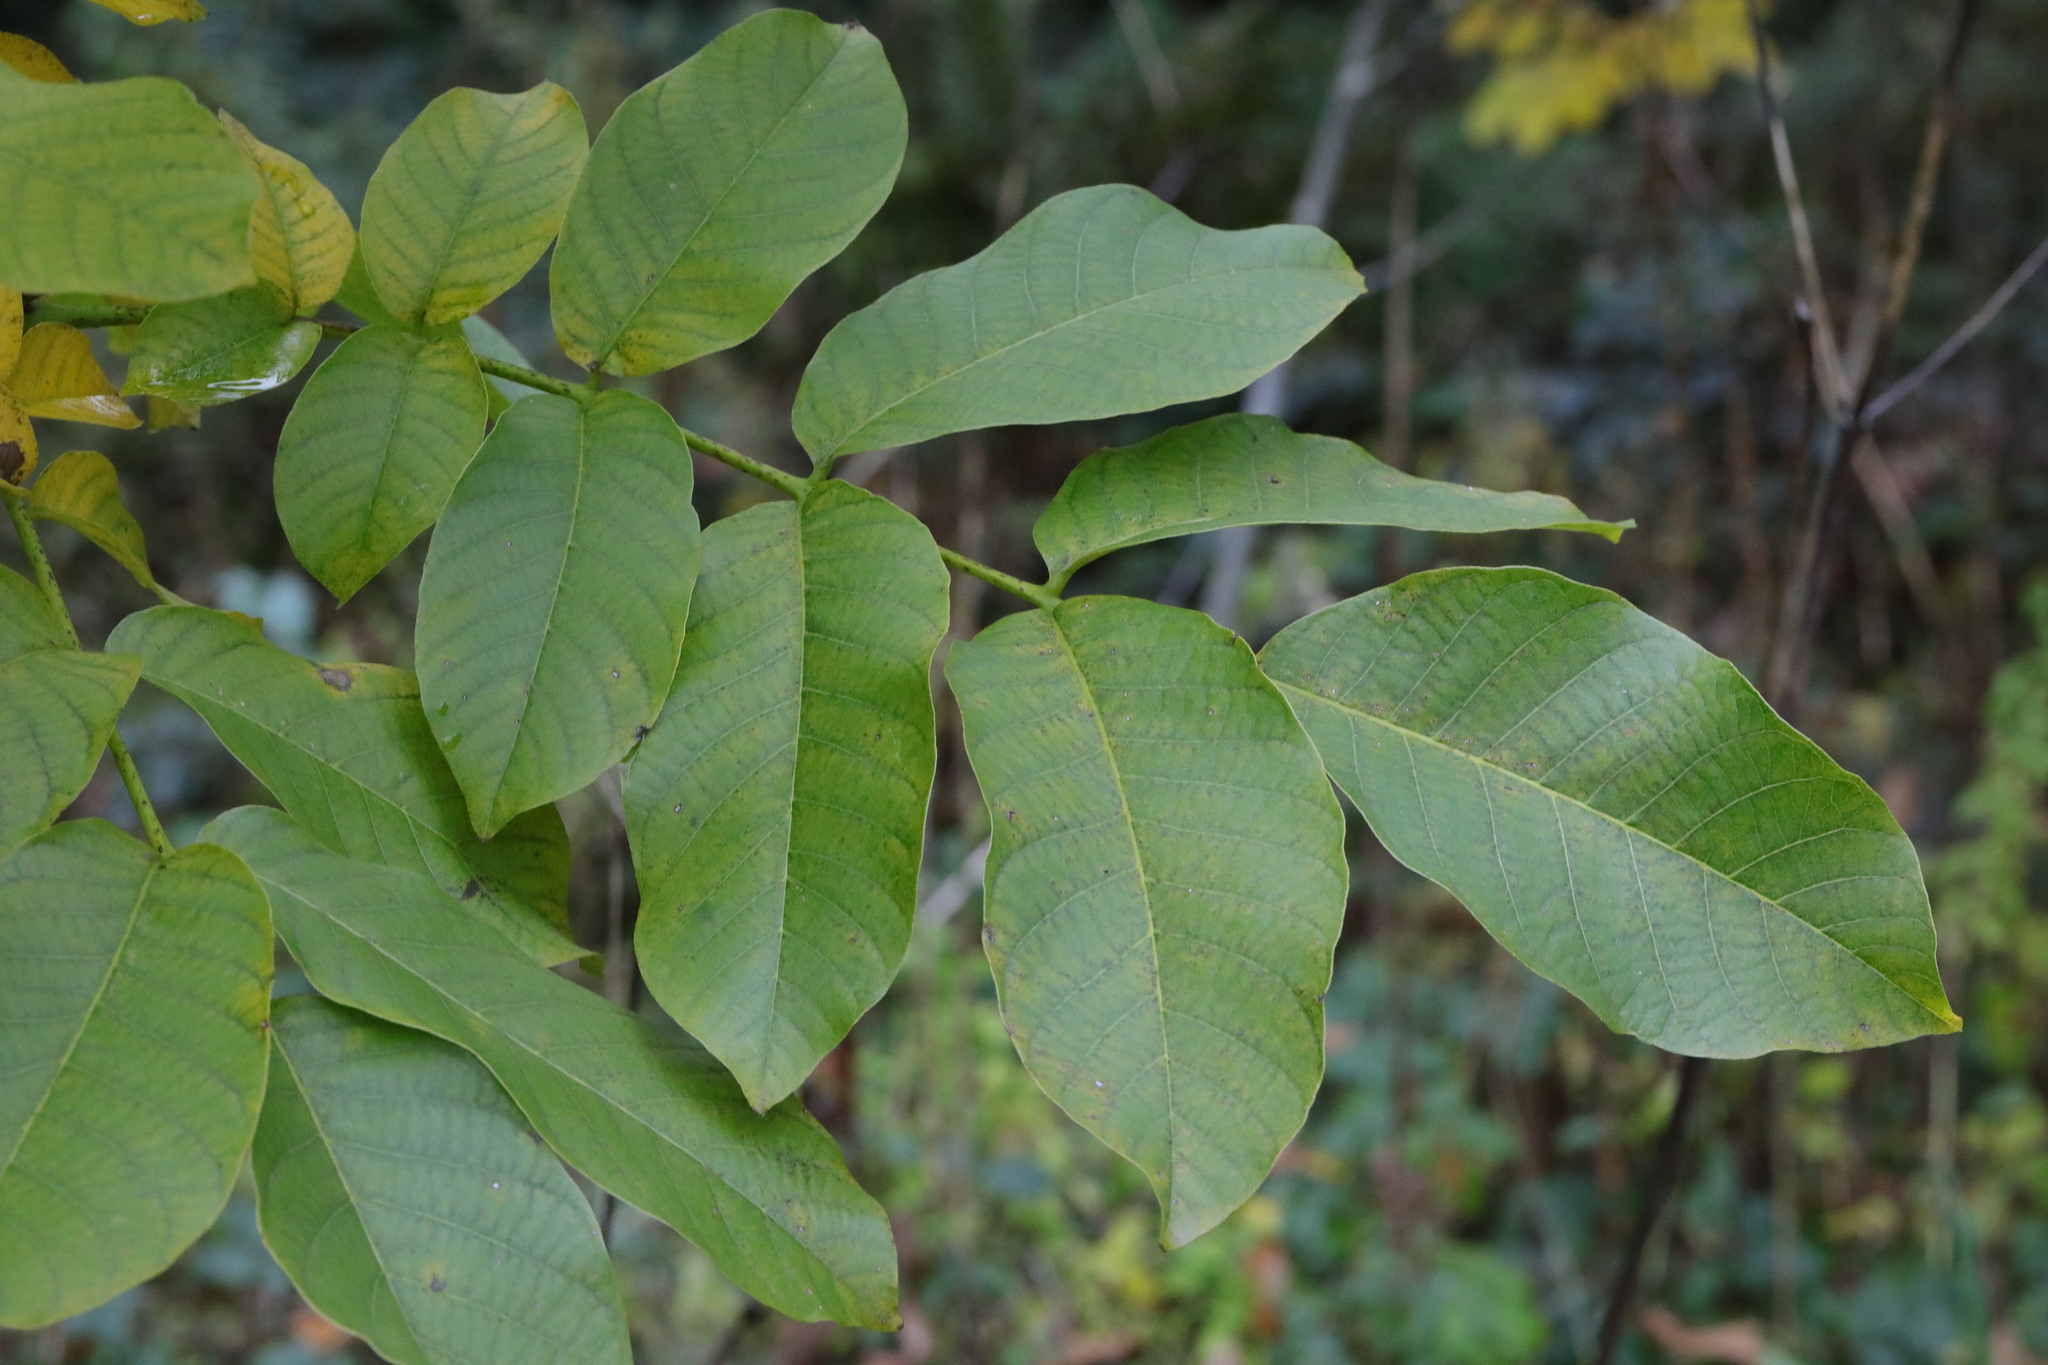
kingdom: Plantae
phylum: Tracheophyta
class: Magnoliopsida
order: Fagales
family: Juglandaceae
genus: Juglans
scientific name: Juglans regia
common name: Walnut
